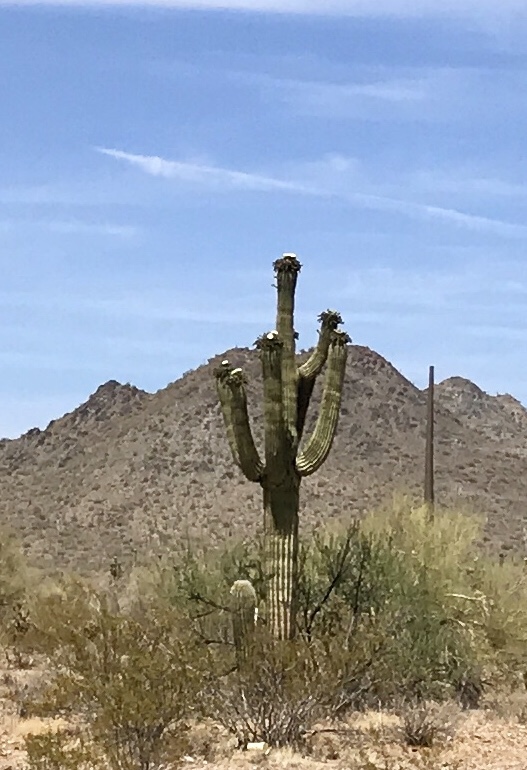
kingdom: Plantae
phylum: Tracheophyta
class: Magnoliopsida
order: Caryophyllales
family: Cactaceae
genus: Carnegiea
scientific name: Carnegiea gigantea
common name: Saguaro
